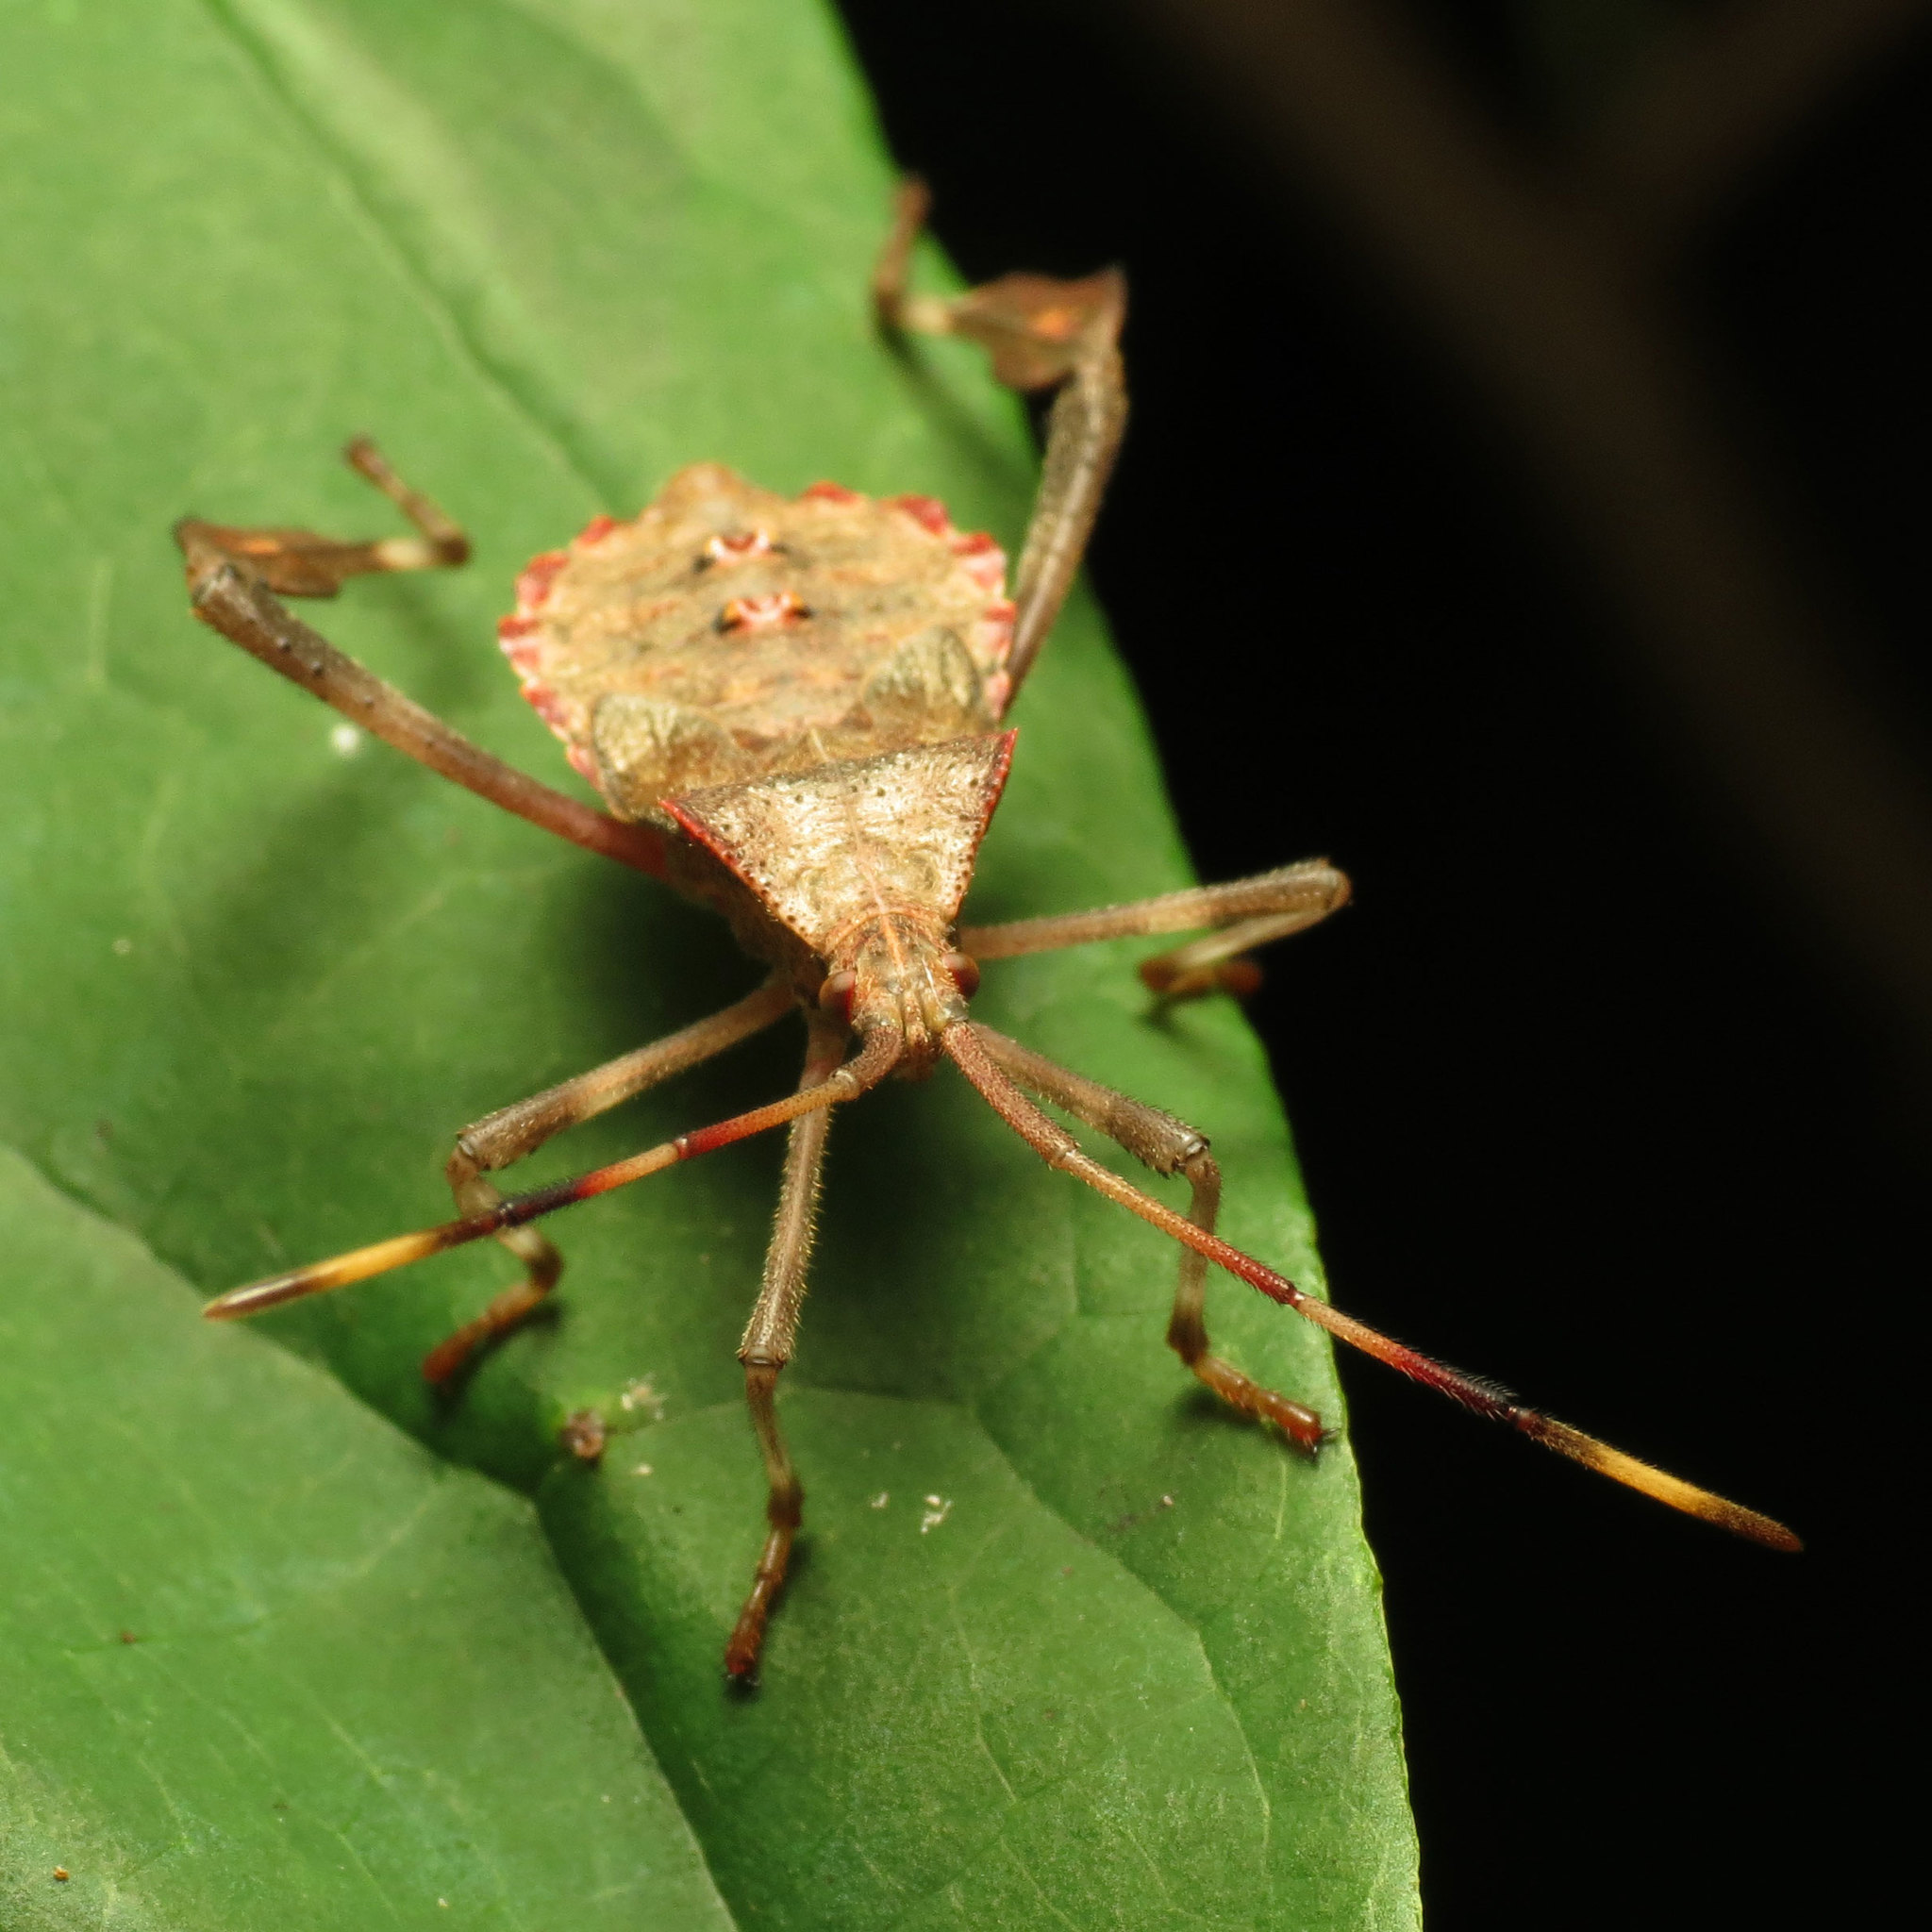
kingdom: Animalia
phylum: Arthropoda
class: Insecta
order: Hemiptera
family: Coreidae
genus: Acanthocephala
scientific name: Acanthocephala terminalis
